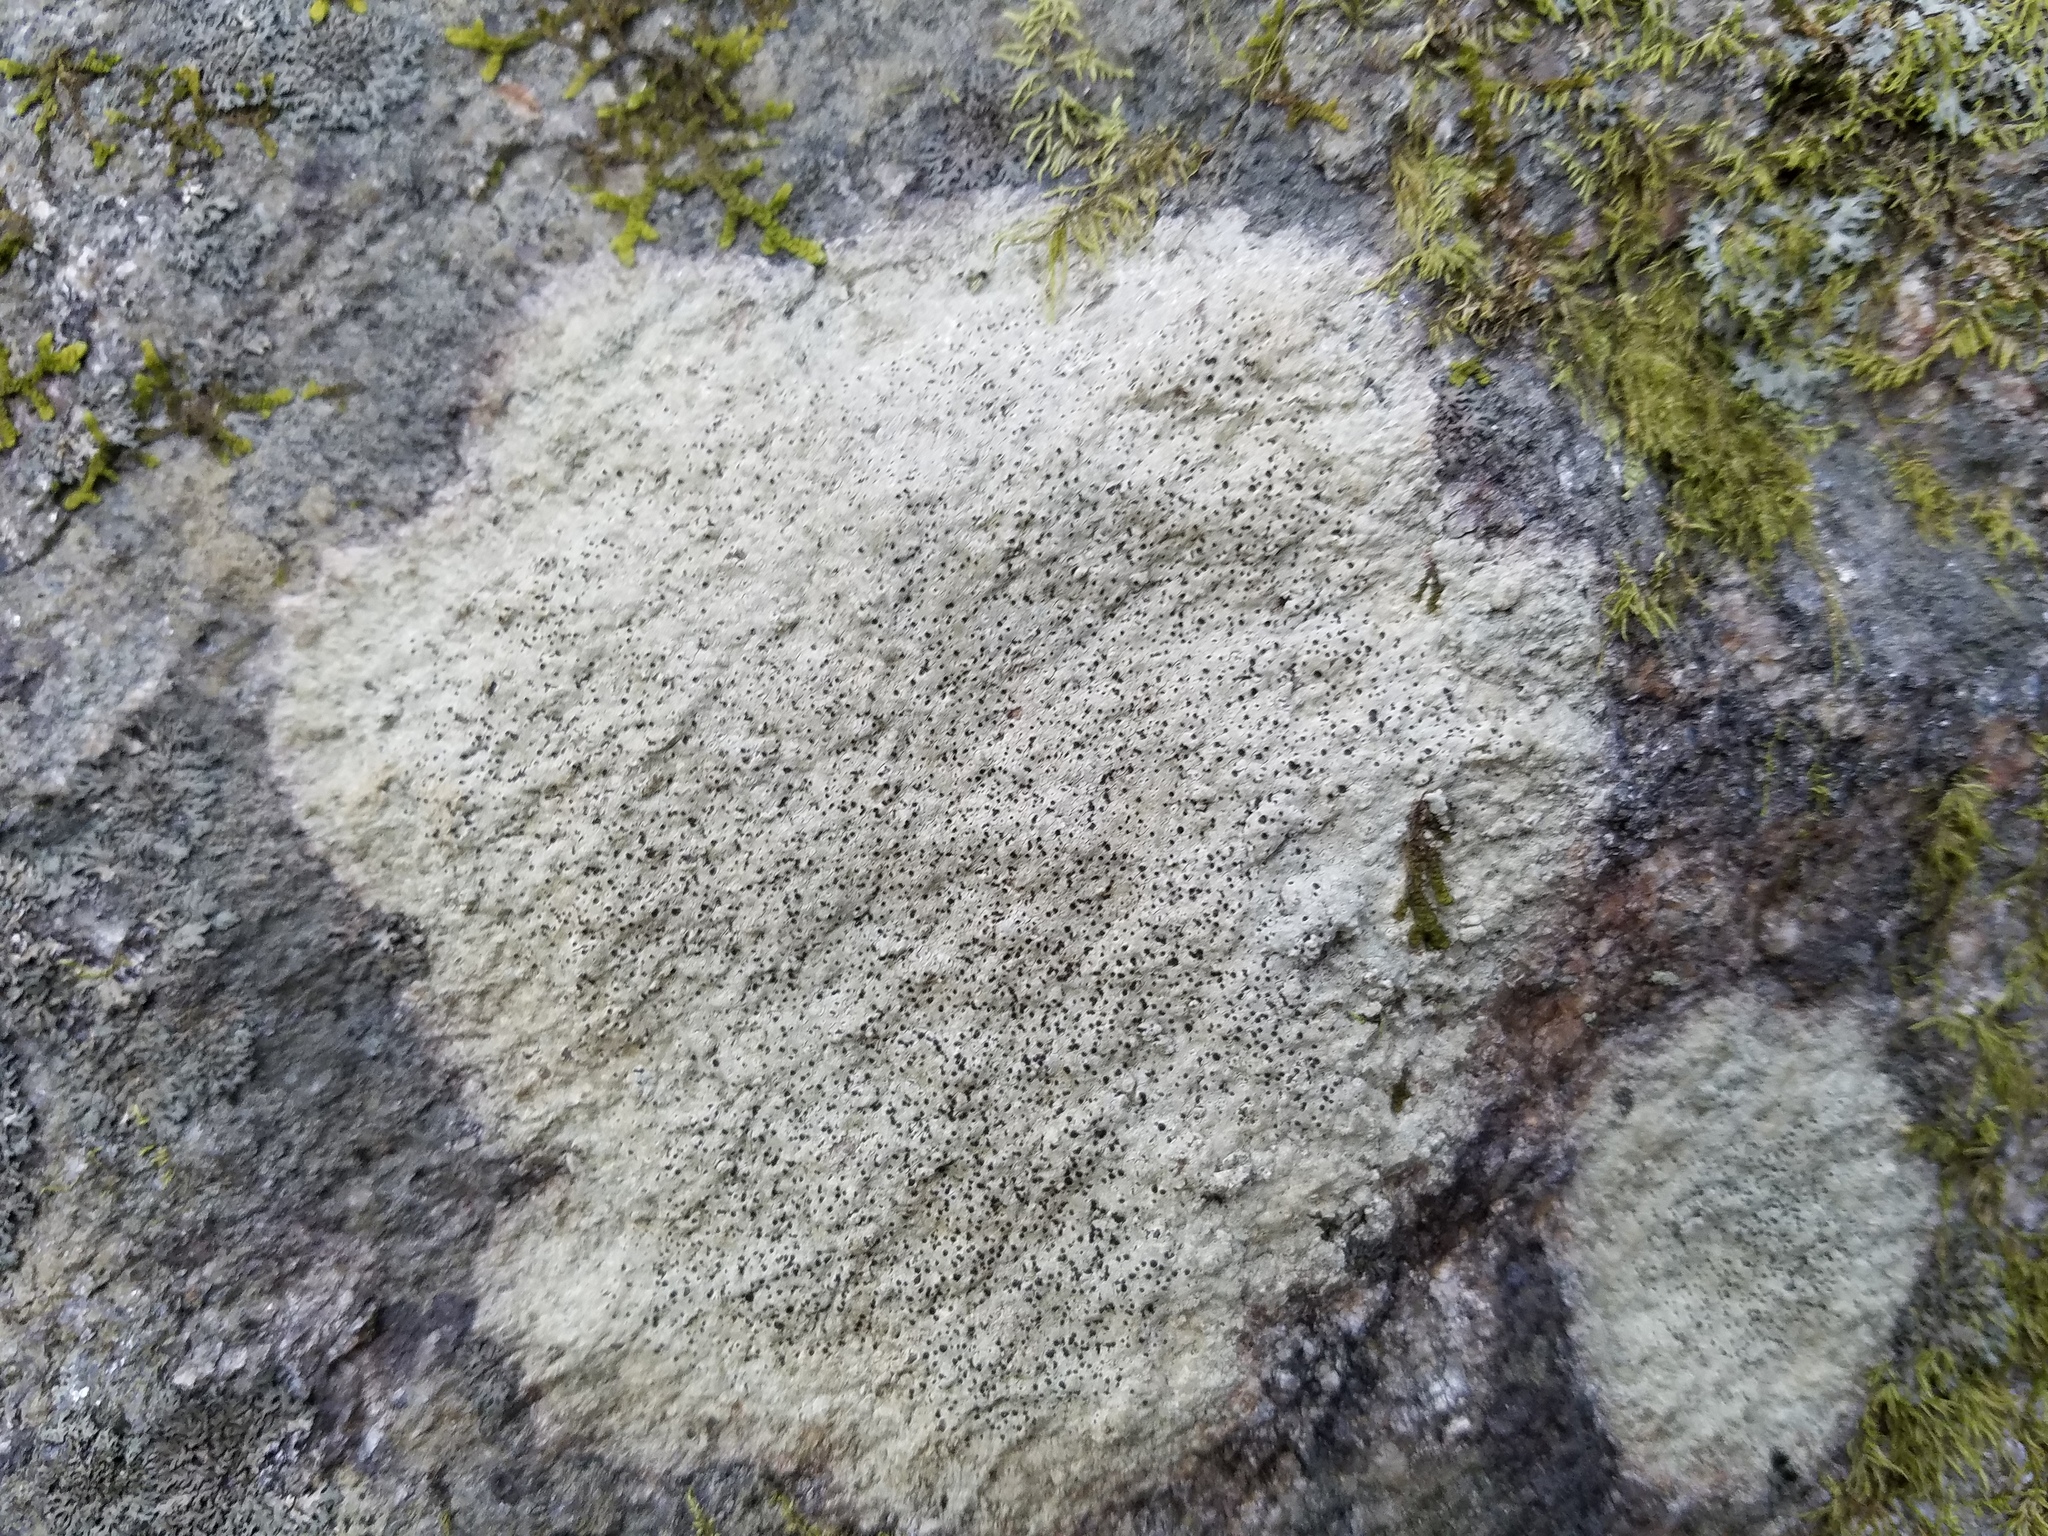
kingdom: Fungi
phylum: Ascomycota
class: Lecanoromycetes
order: Caliciales
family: Caliciaceae
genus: Buellia
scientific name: Buellia mamillana
